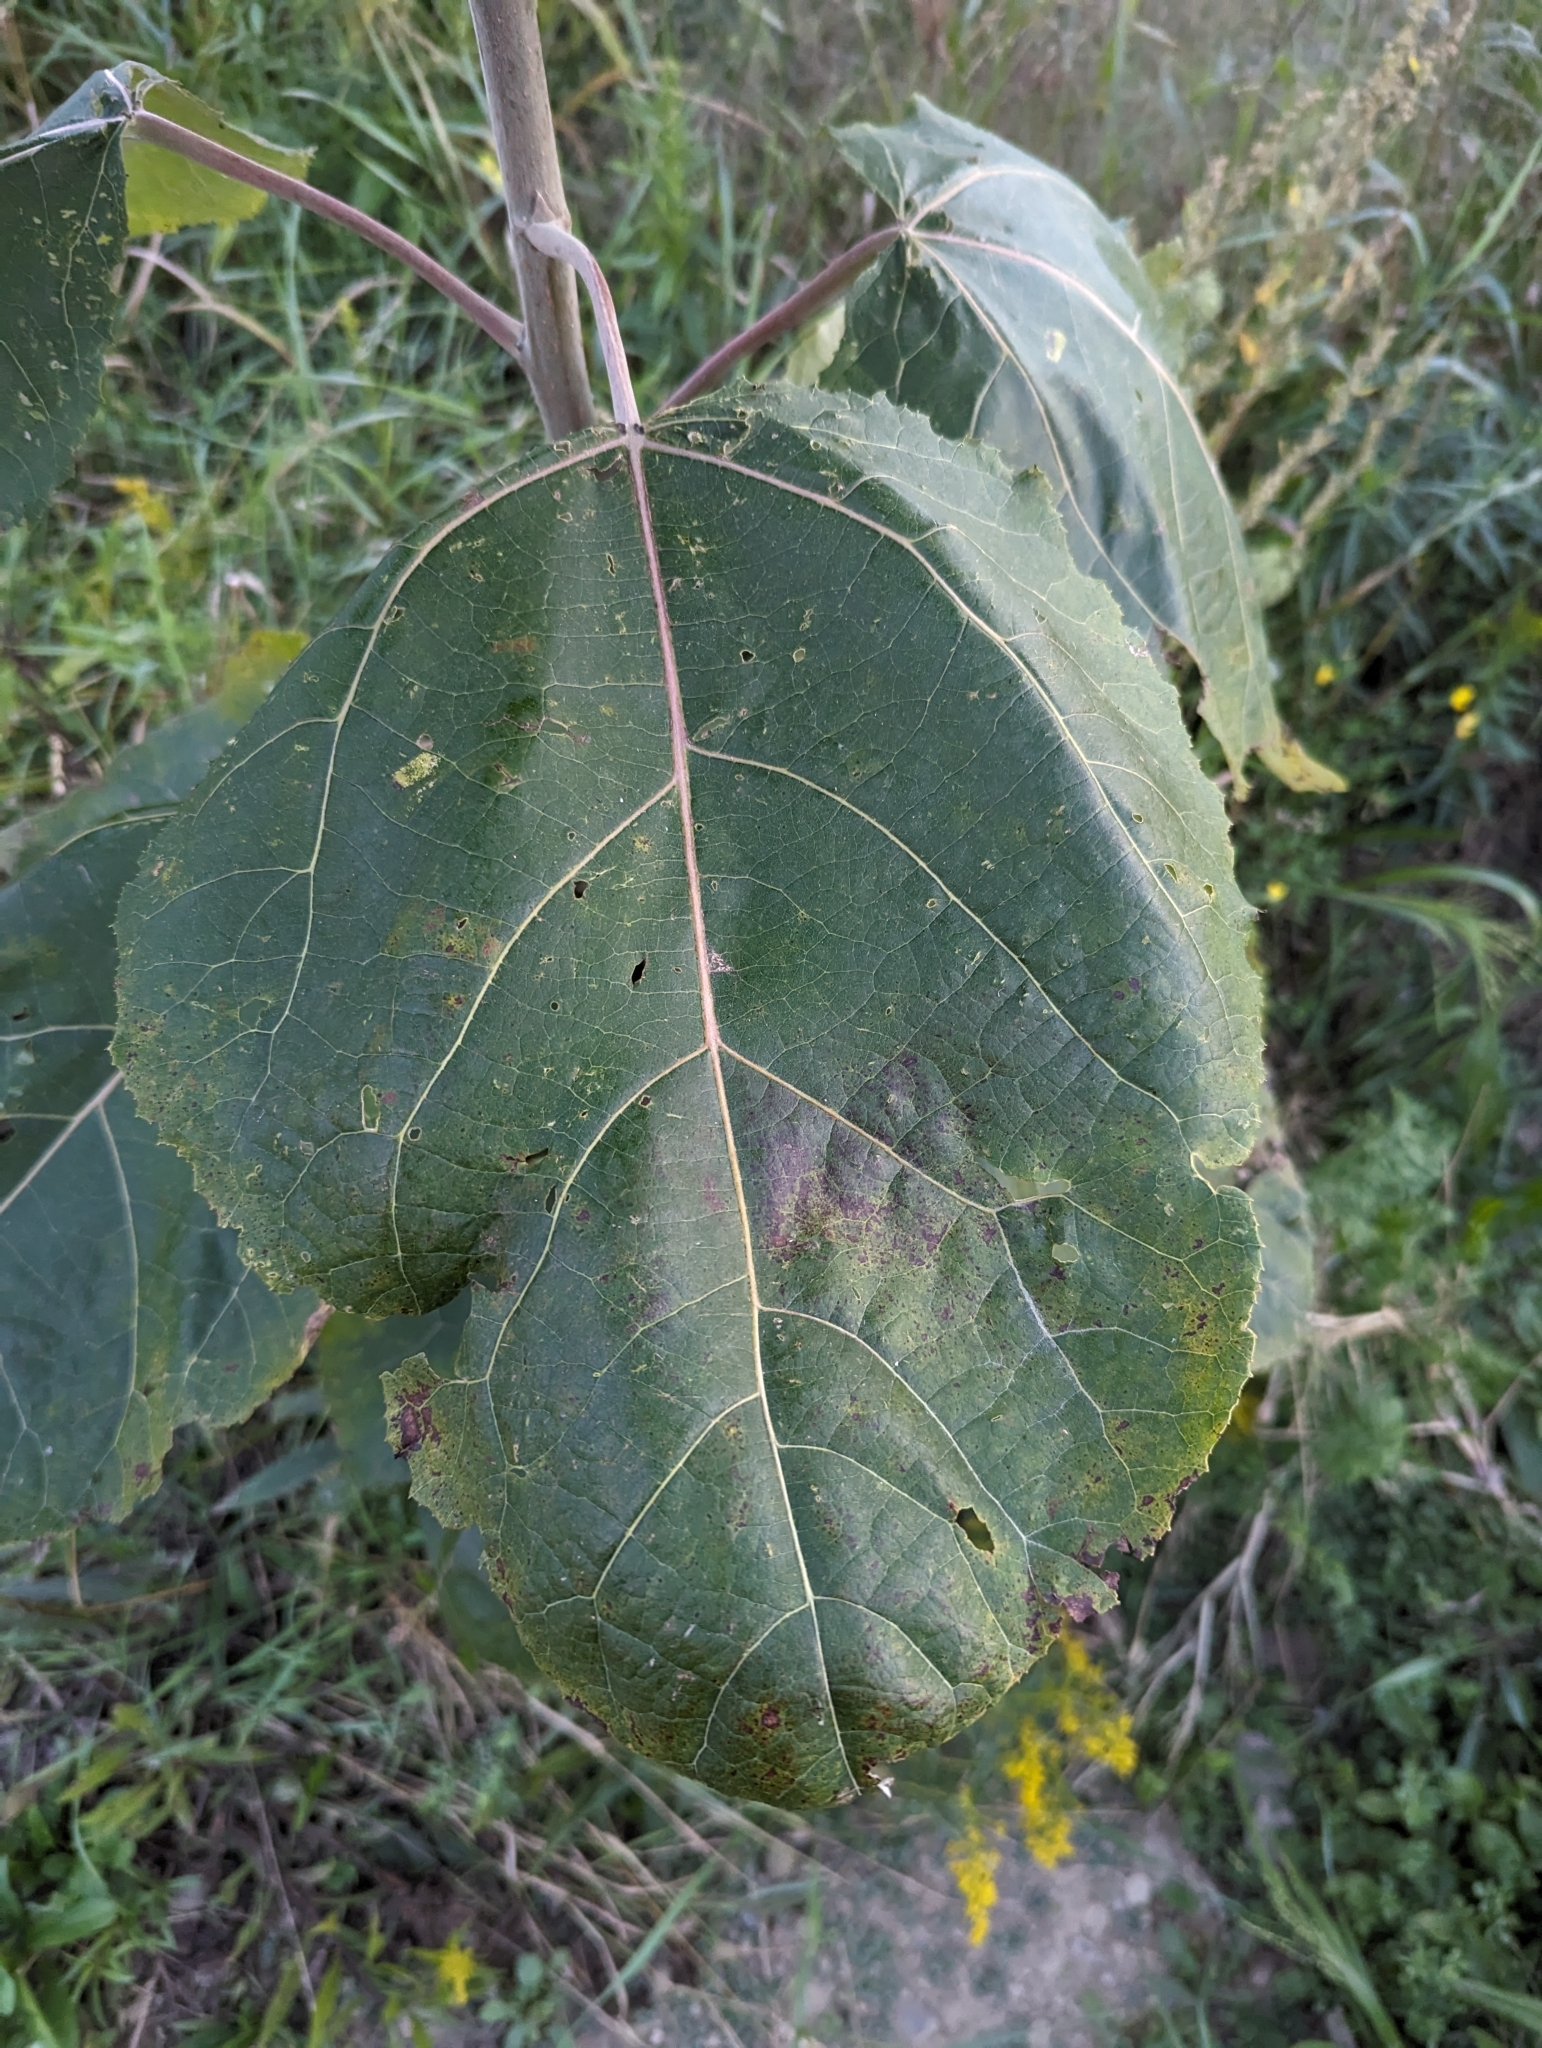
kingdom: Plantae
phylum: Tracheophyta
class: Magnoliopsida
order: Malpighiales
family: Salicaceae
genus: Populus
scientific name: Populus deltoides
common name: Eastern cottonwood
